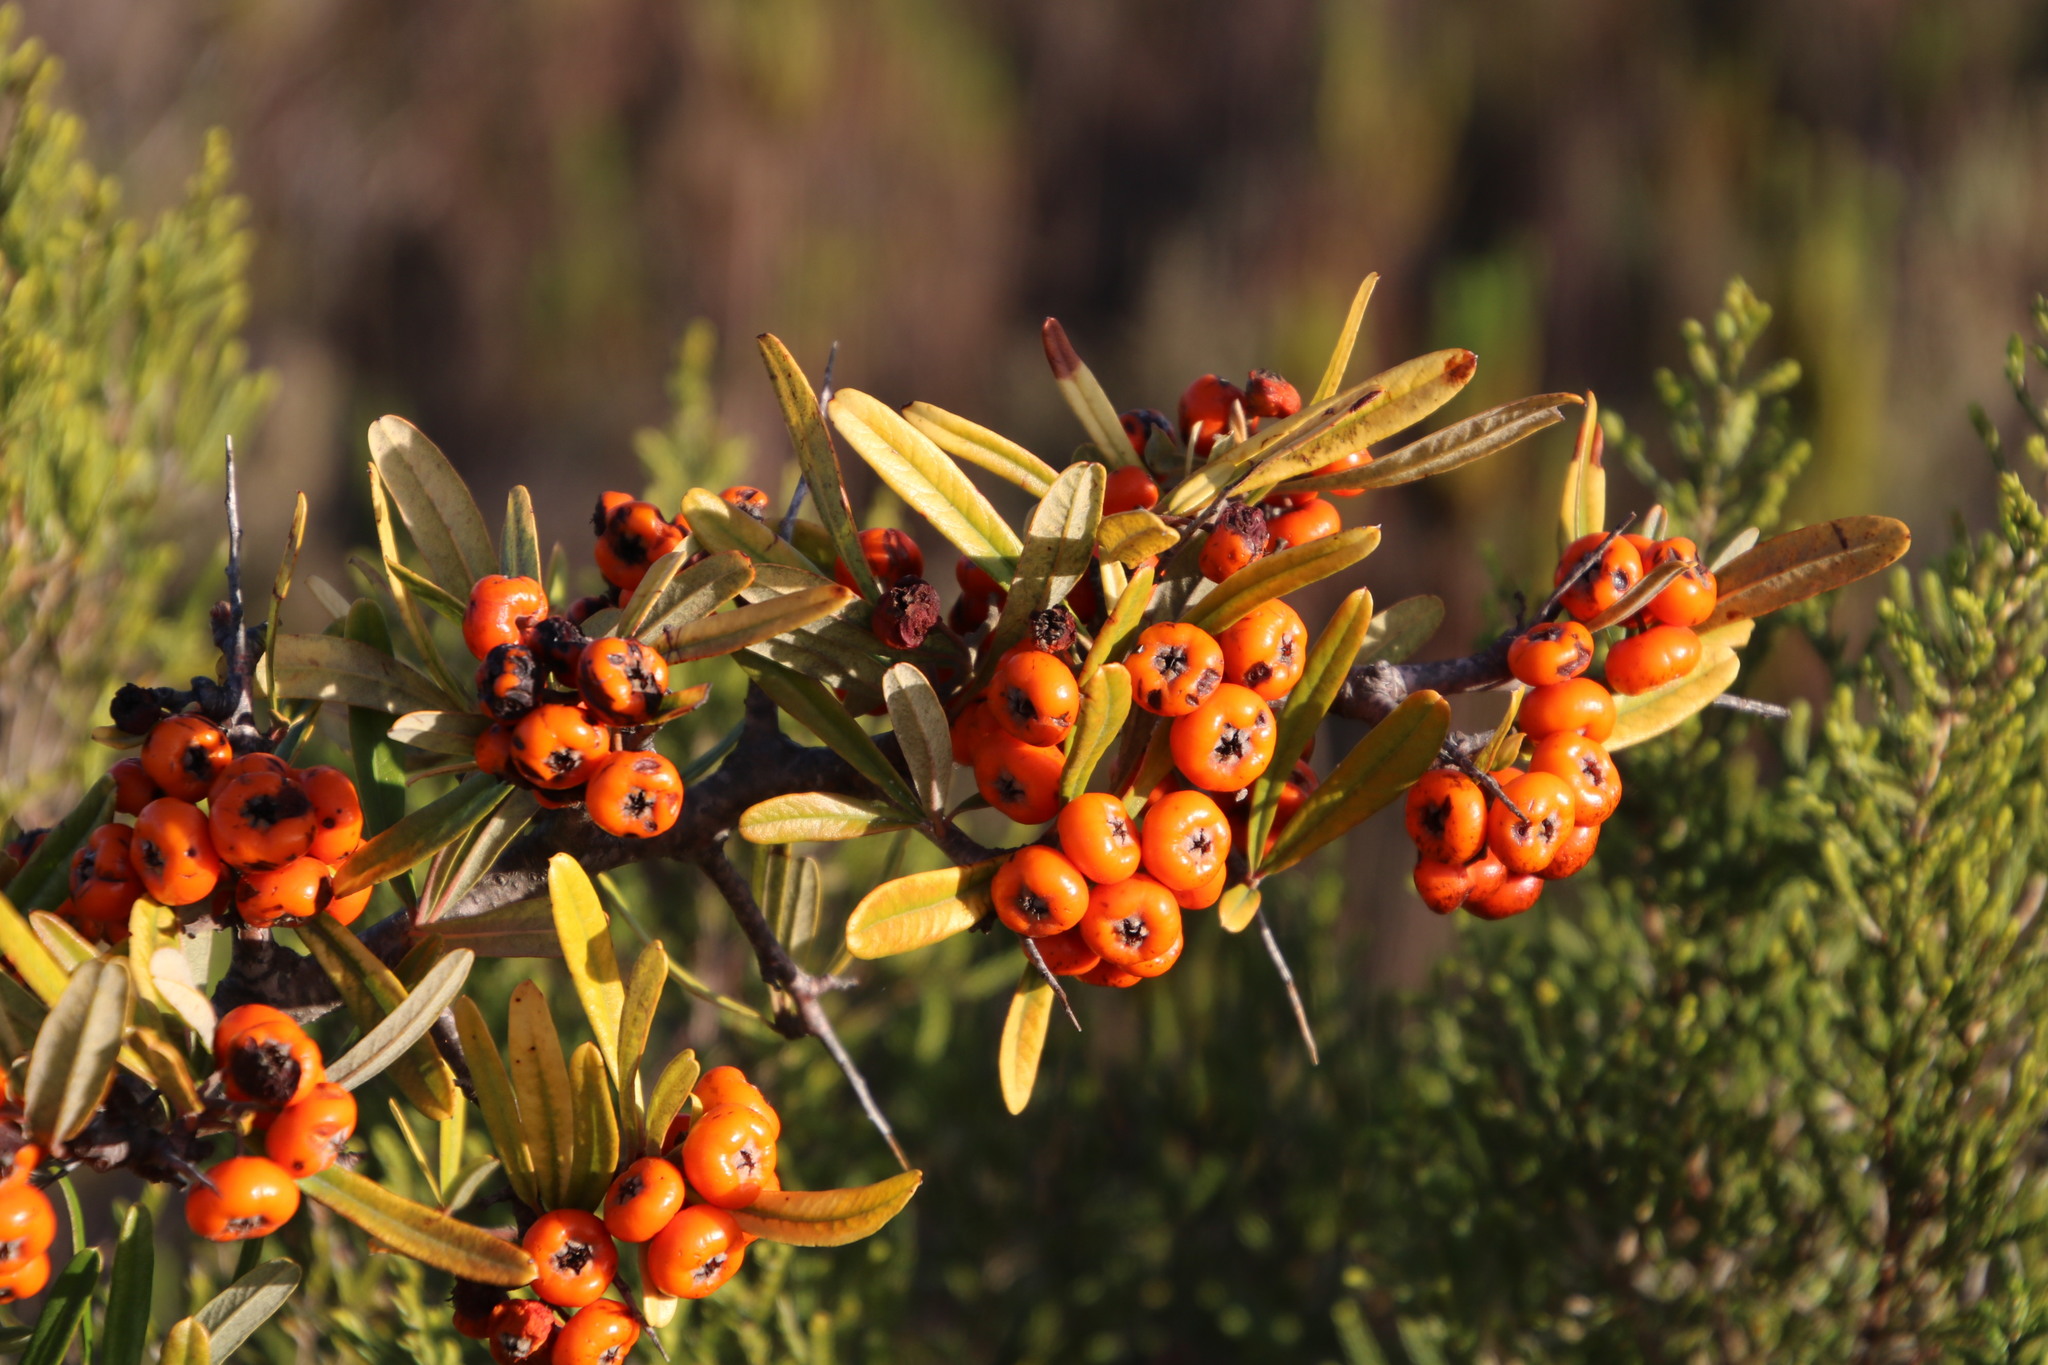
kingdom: Plantae
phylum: Tracheophyta
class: Magnoliopsida
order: Rosales
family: Rosaceae
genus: Pyracantha
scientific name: Pyracantha angustifolia
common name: Narrowleaf firethorn
